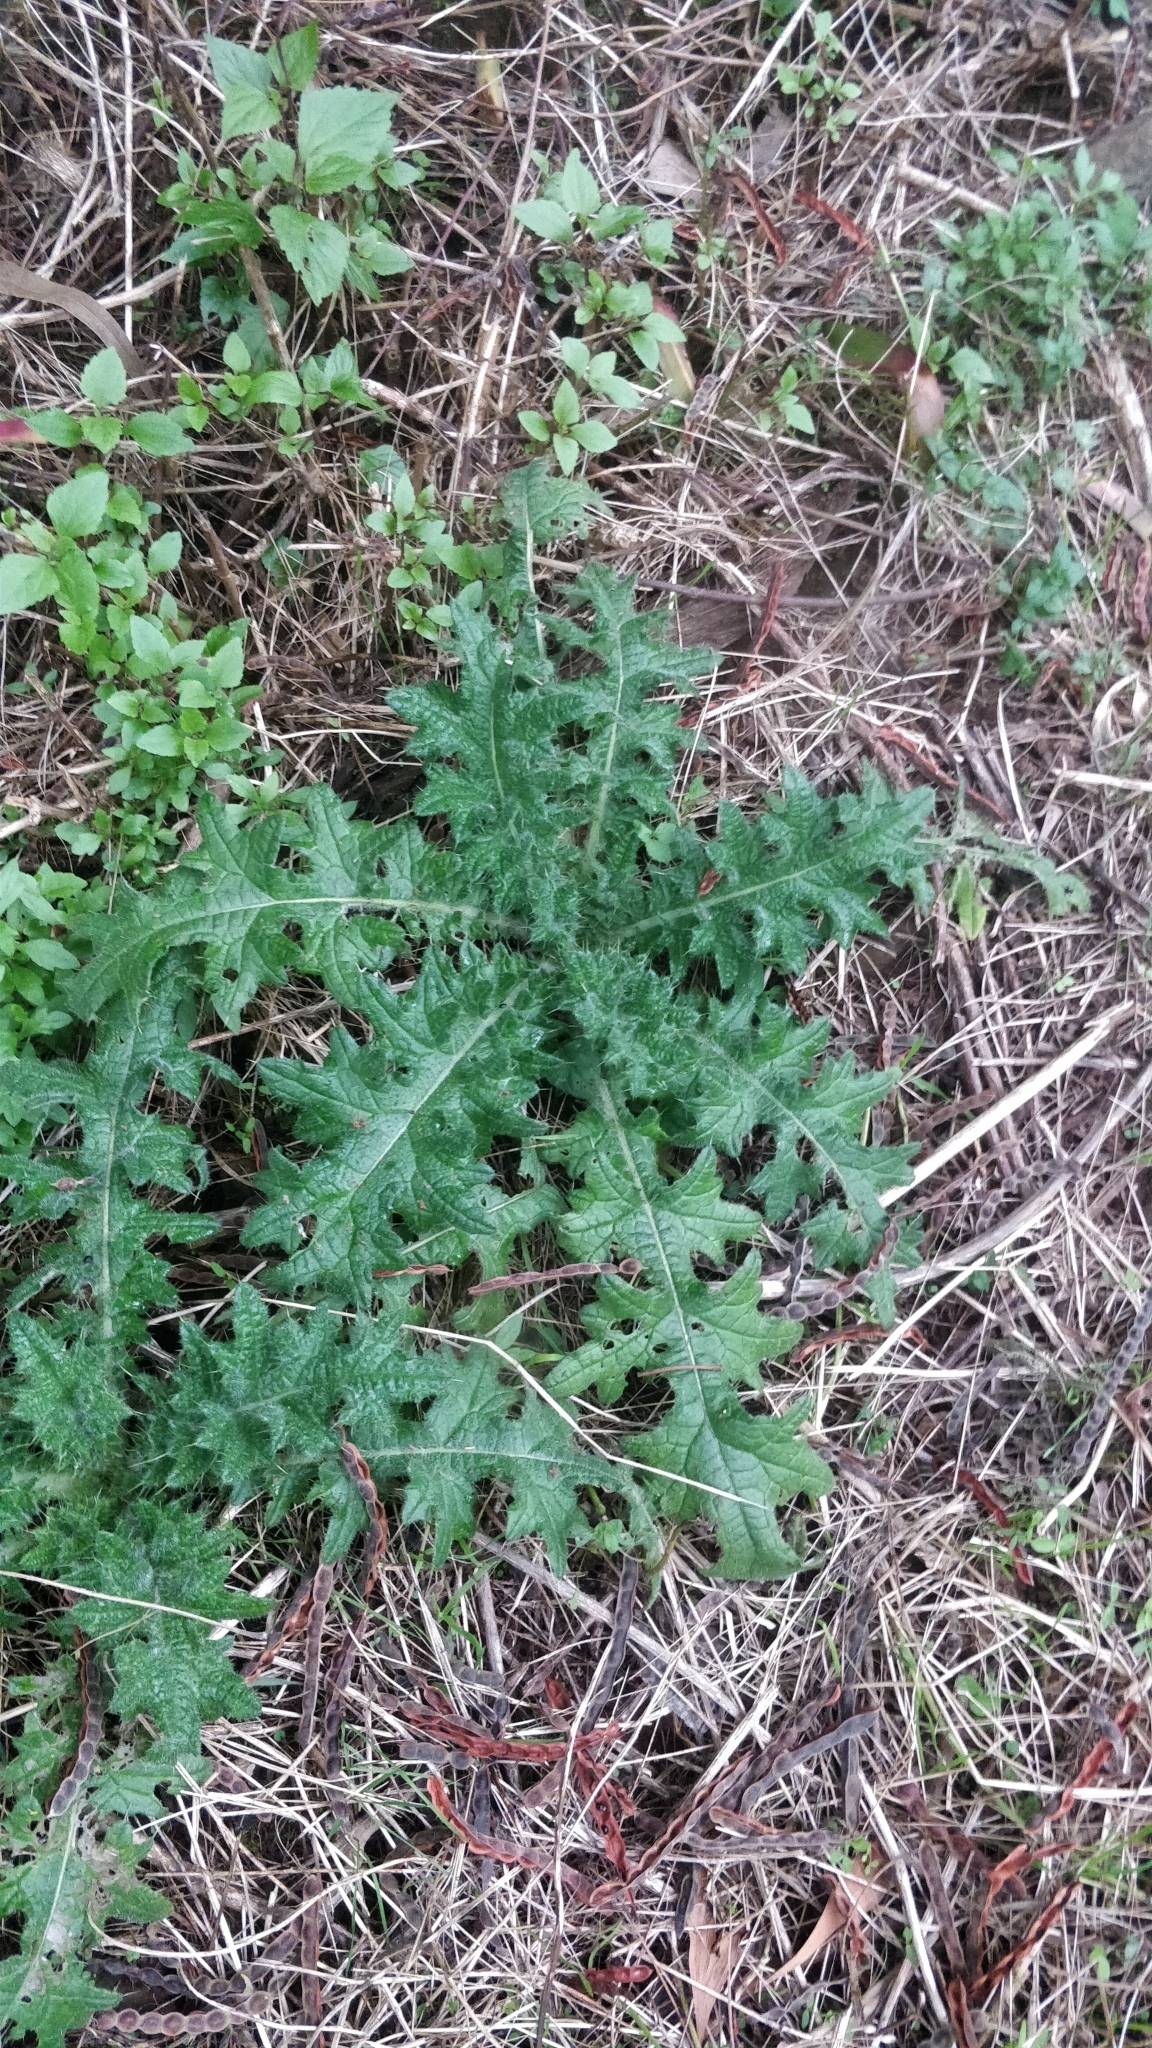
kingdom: Plantae
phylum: Tracheophyta
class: Magnoliopsida
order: Asterales
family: Asteraceae
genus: Cirsium
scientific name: Cirsium vulgare
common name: Bull thistle
